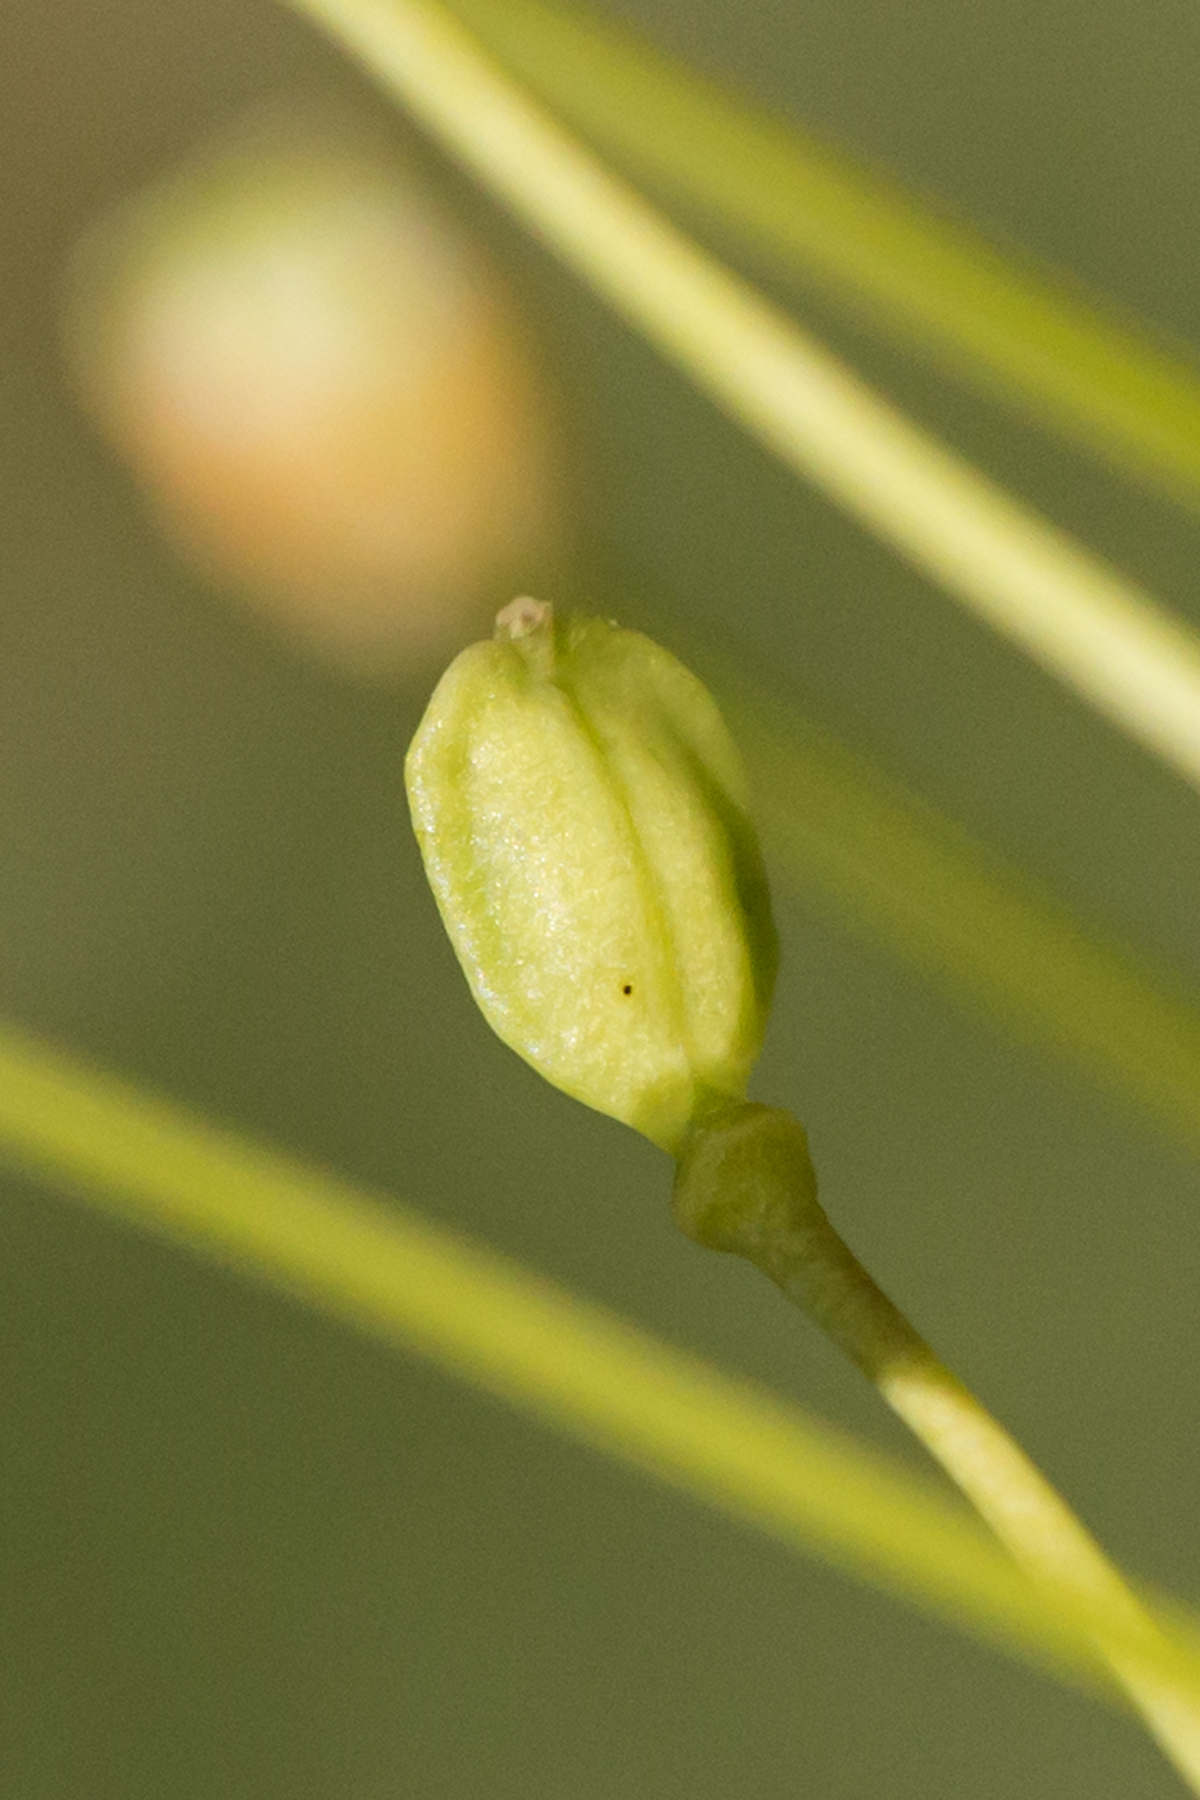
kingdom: Plantae
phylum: Tracheophyta
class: Magnoliopsida
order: Brassicales
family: Brassicaceae
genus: Mummenhoffia
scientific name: Mummenhoffia alliacea
